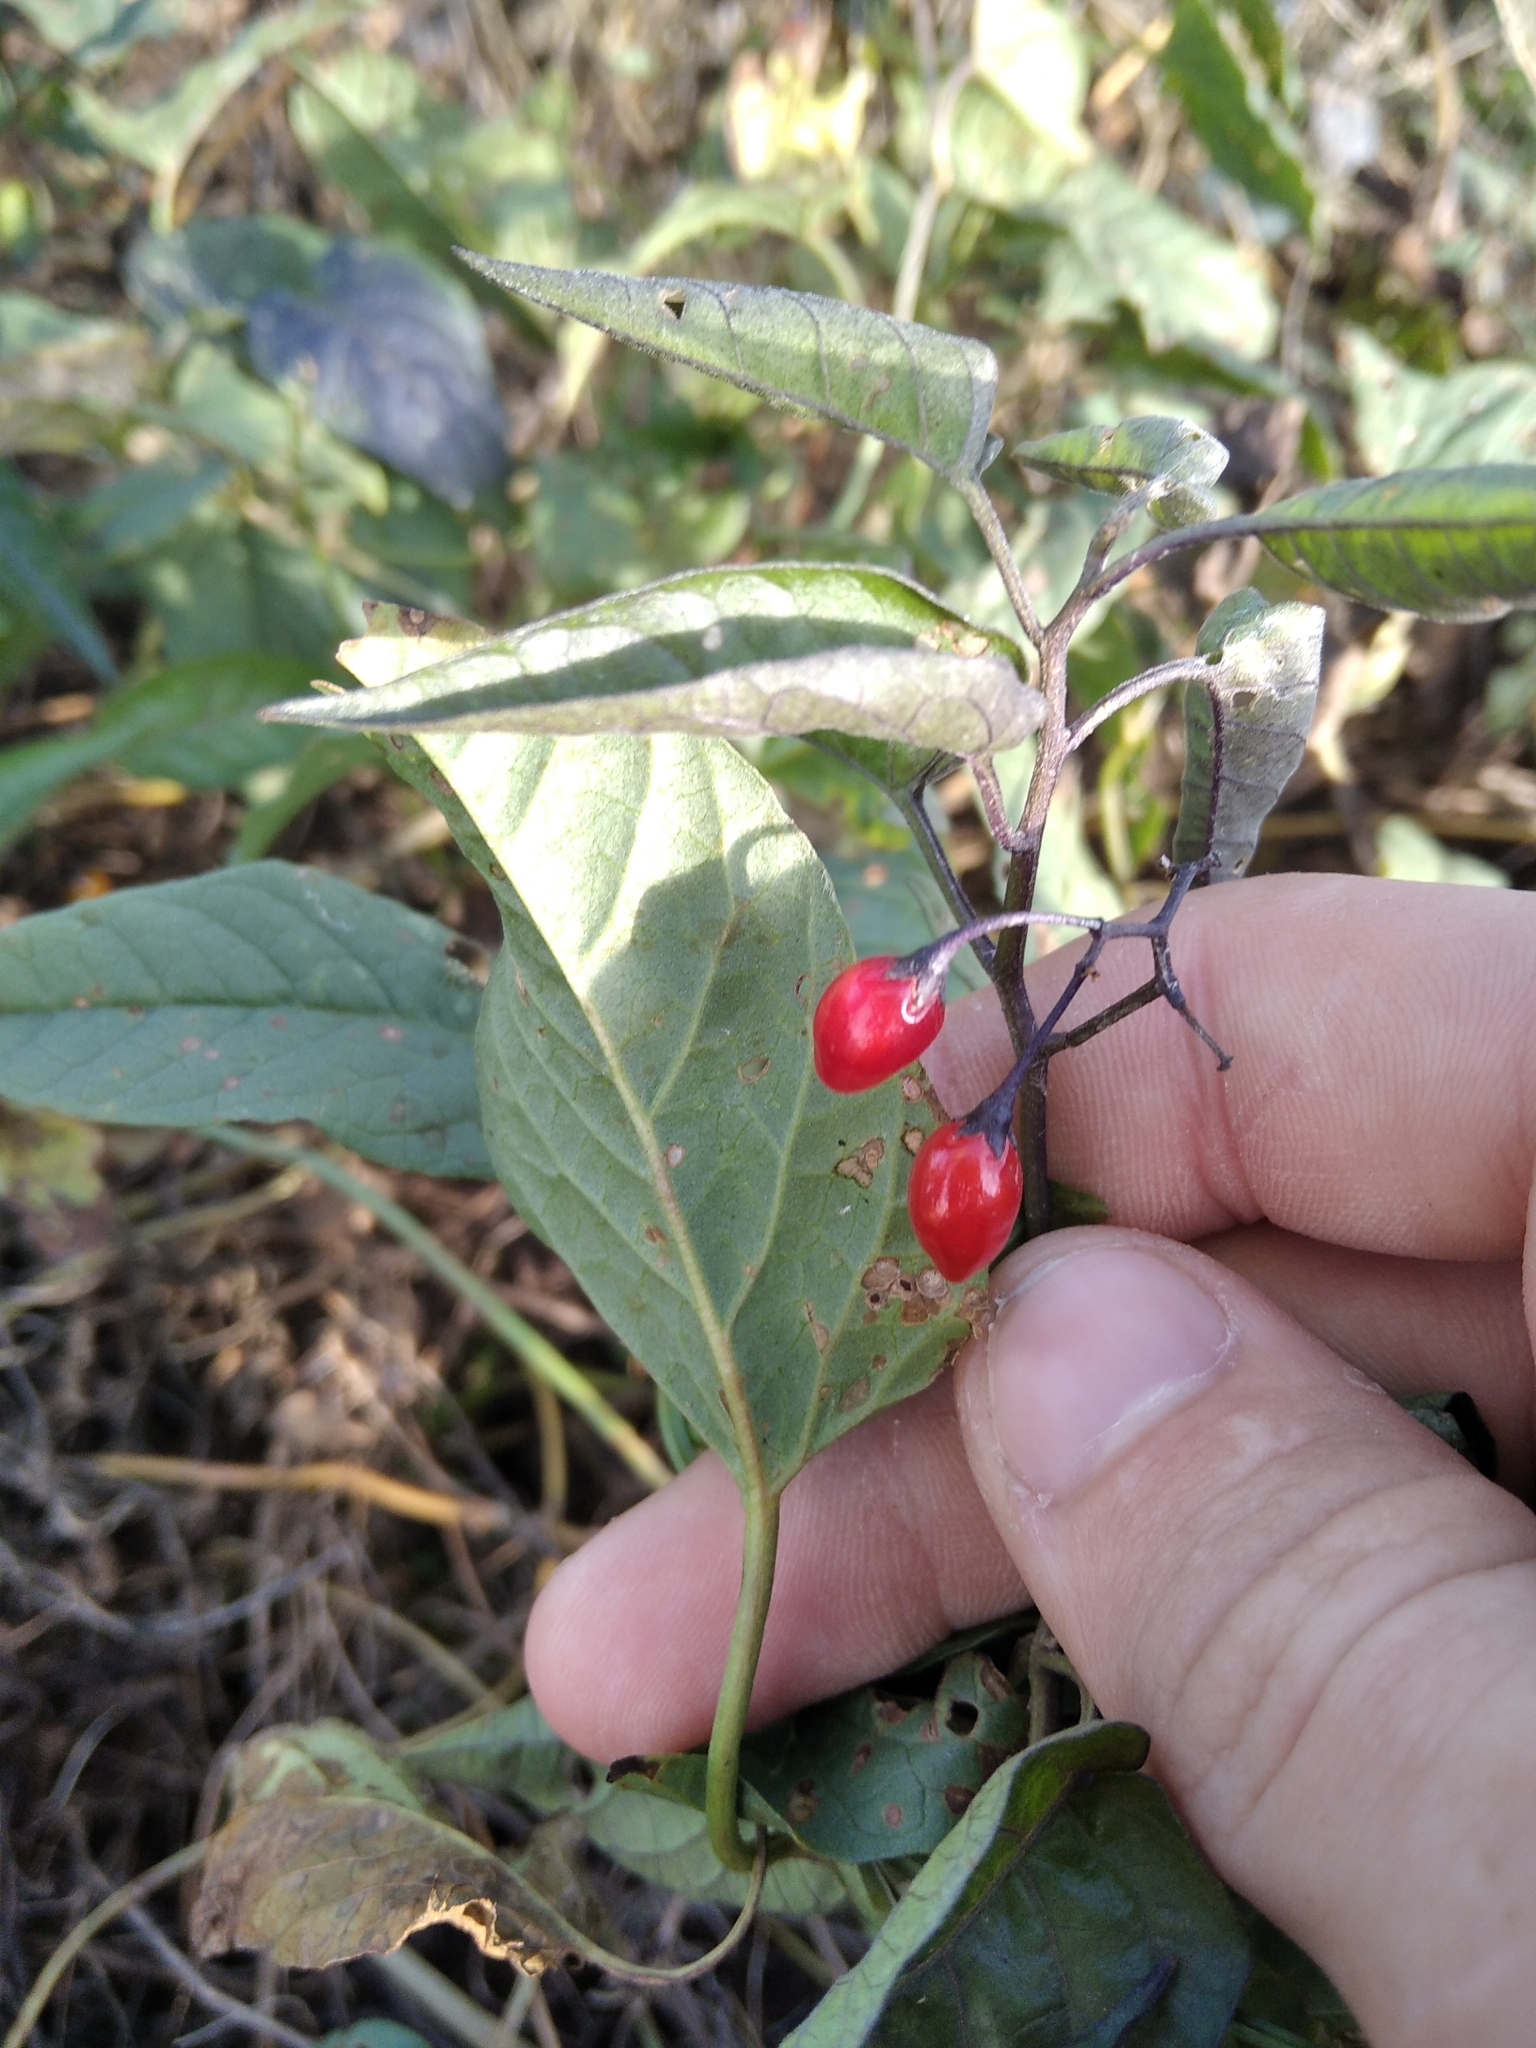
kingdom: Plantae
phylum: Tracheophyta
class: Magnoliopsida
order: Solanales
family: Solanaceae
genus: Solanum
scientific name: Solanum dulcamara
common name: Climbing nightshade
